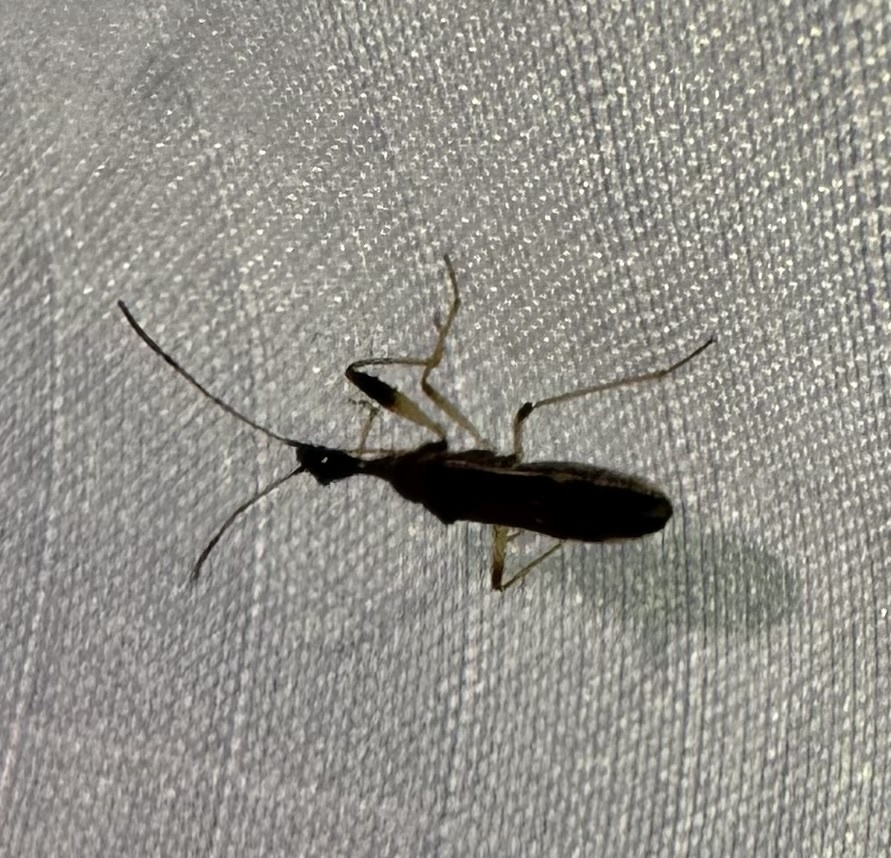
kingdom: Animalia
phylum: Arthropoda
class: Insecta
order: Hemiptera
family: Rhyparochromidae
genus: Myodocha
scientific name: Myodocha serripes
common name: Long-necked seed bug
